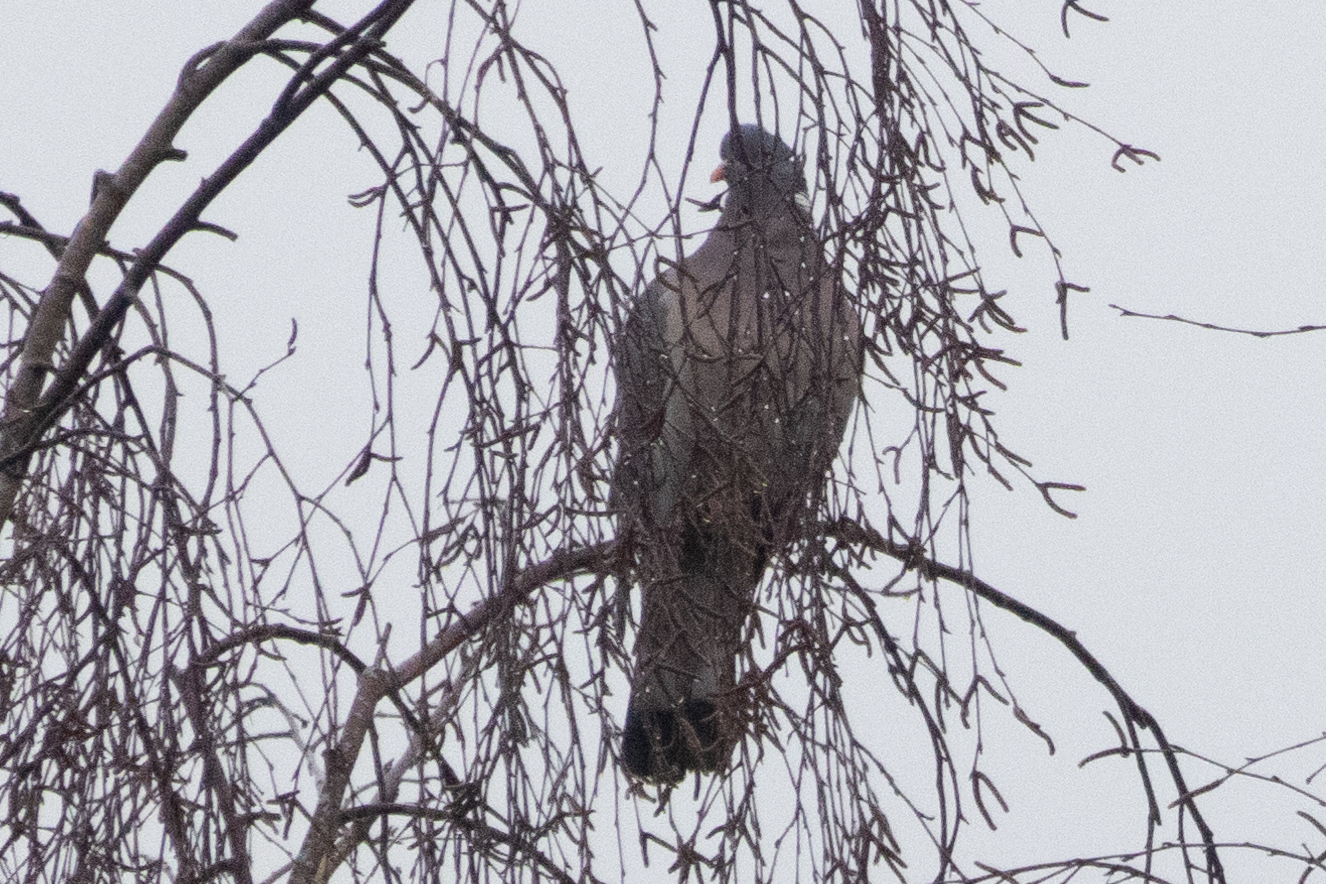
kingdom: Animalia
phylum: Chordata
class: Aves
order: Columbiformes
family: Columbidae
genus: Columba
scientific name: Columba palumbus
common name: Common wood pigeon
